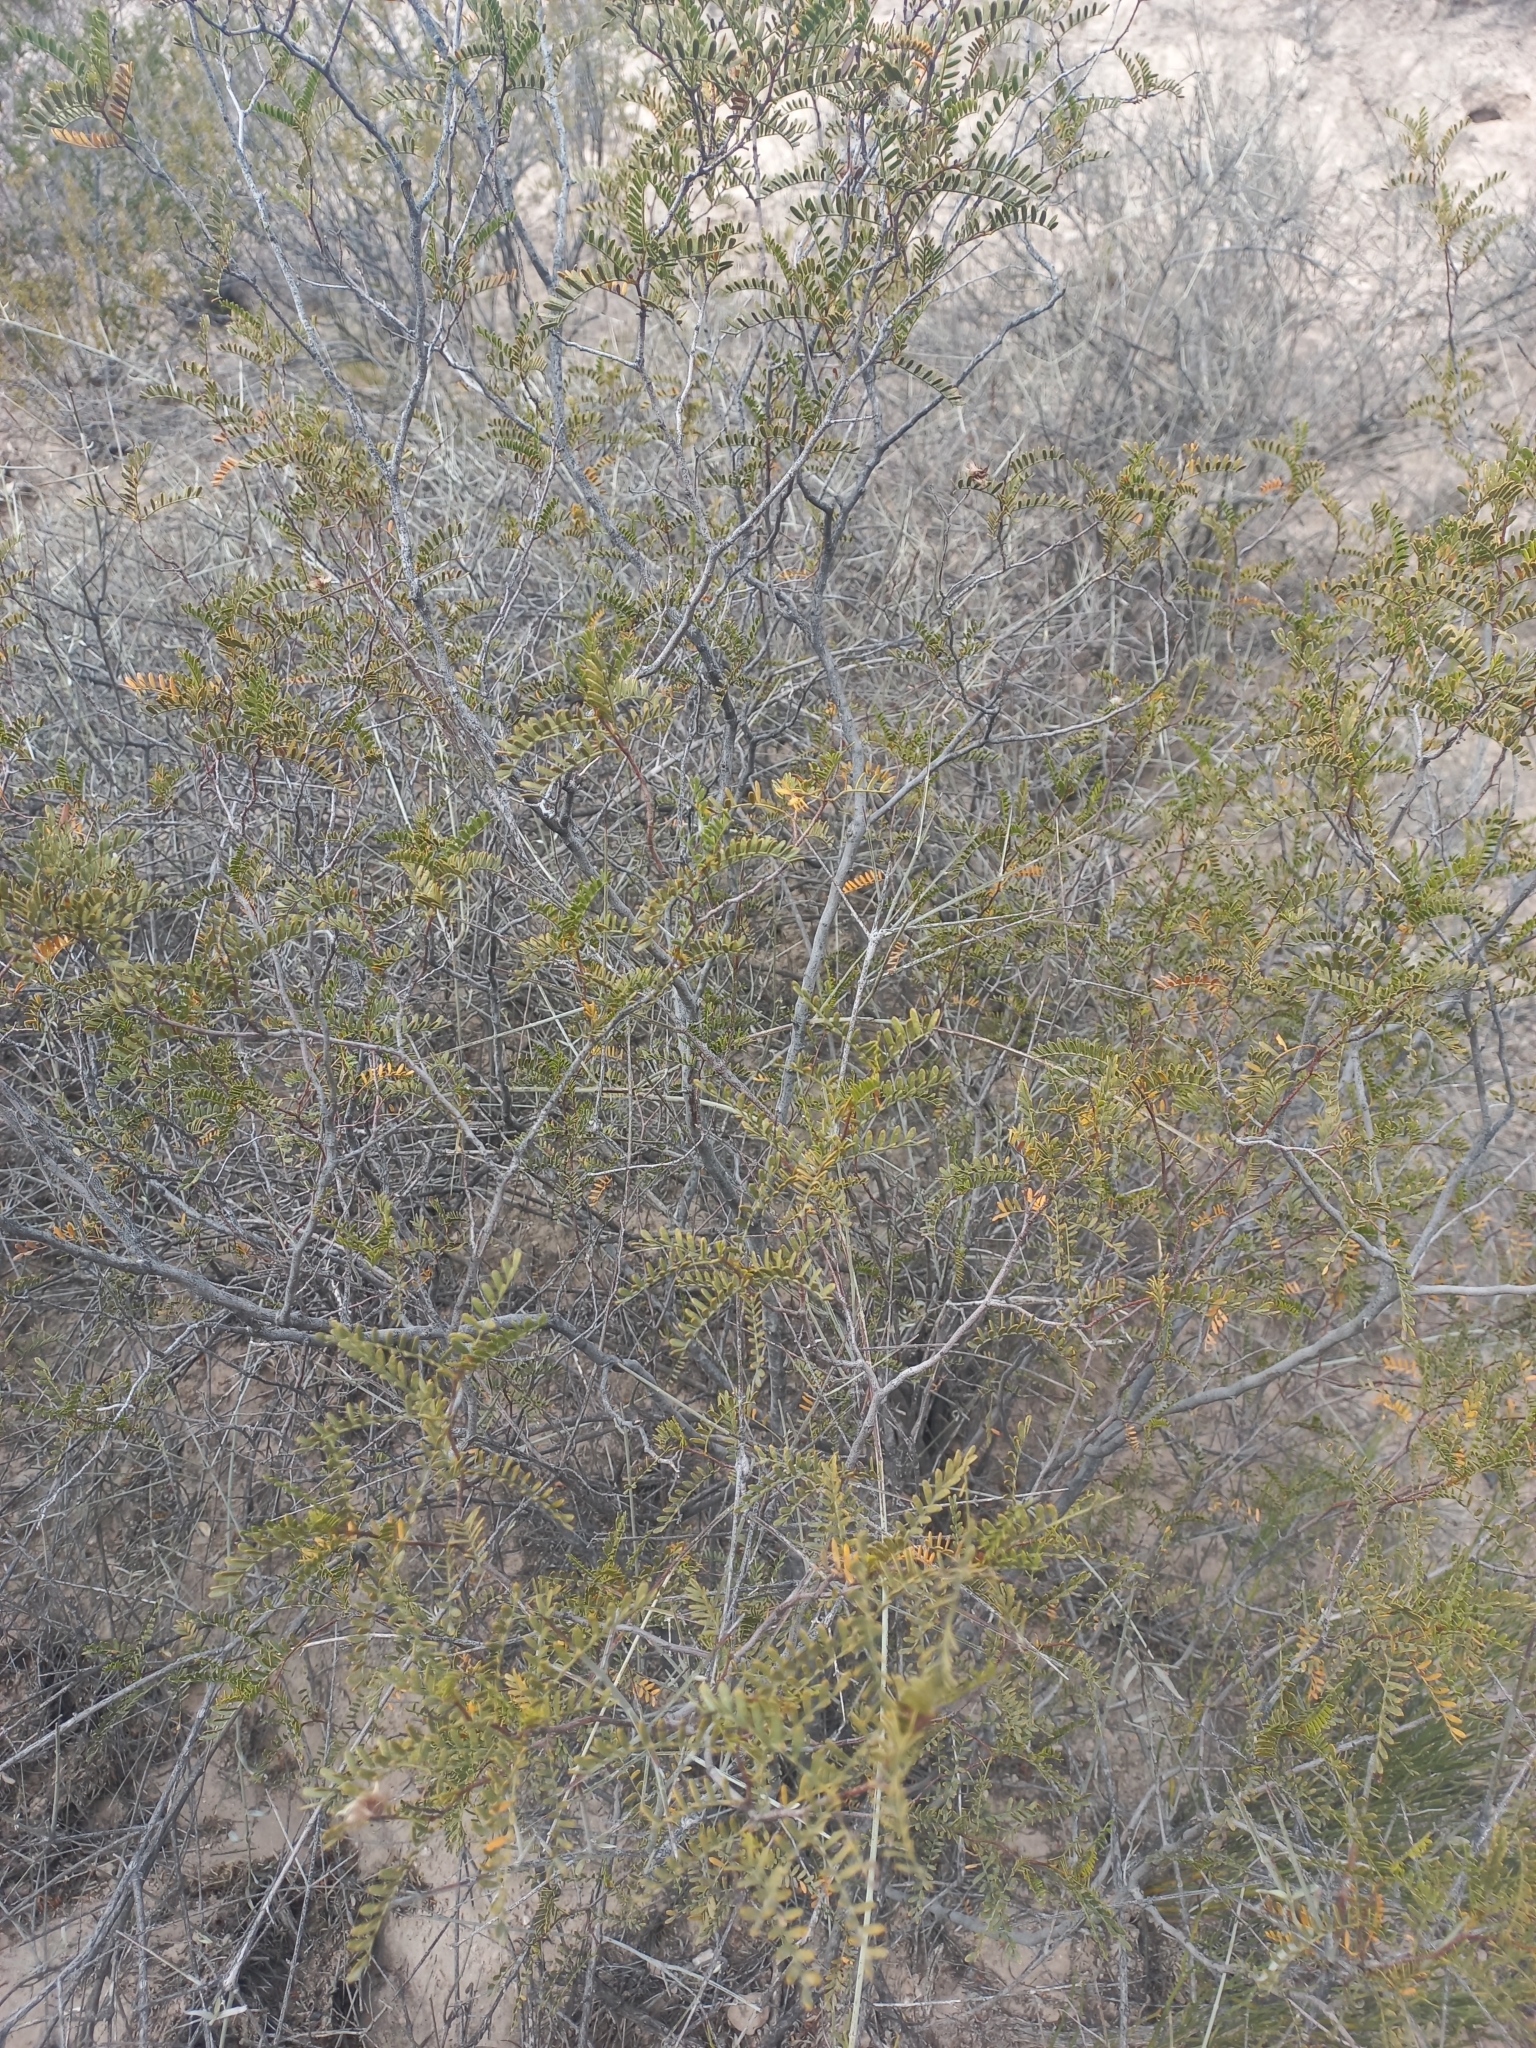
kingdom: Plantae
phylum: Tracheophyta
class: Magnoliopsida
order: Fabales
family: Fabaceae
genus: Zuccagnia
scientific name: Zuccagnia punctata
